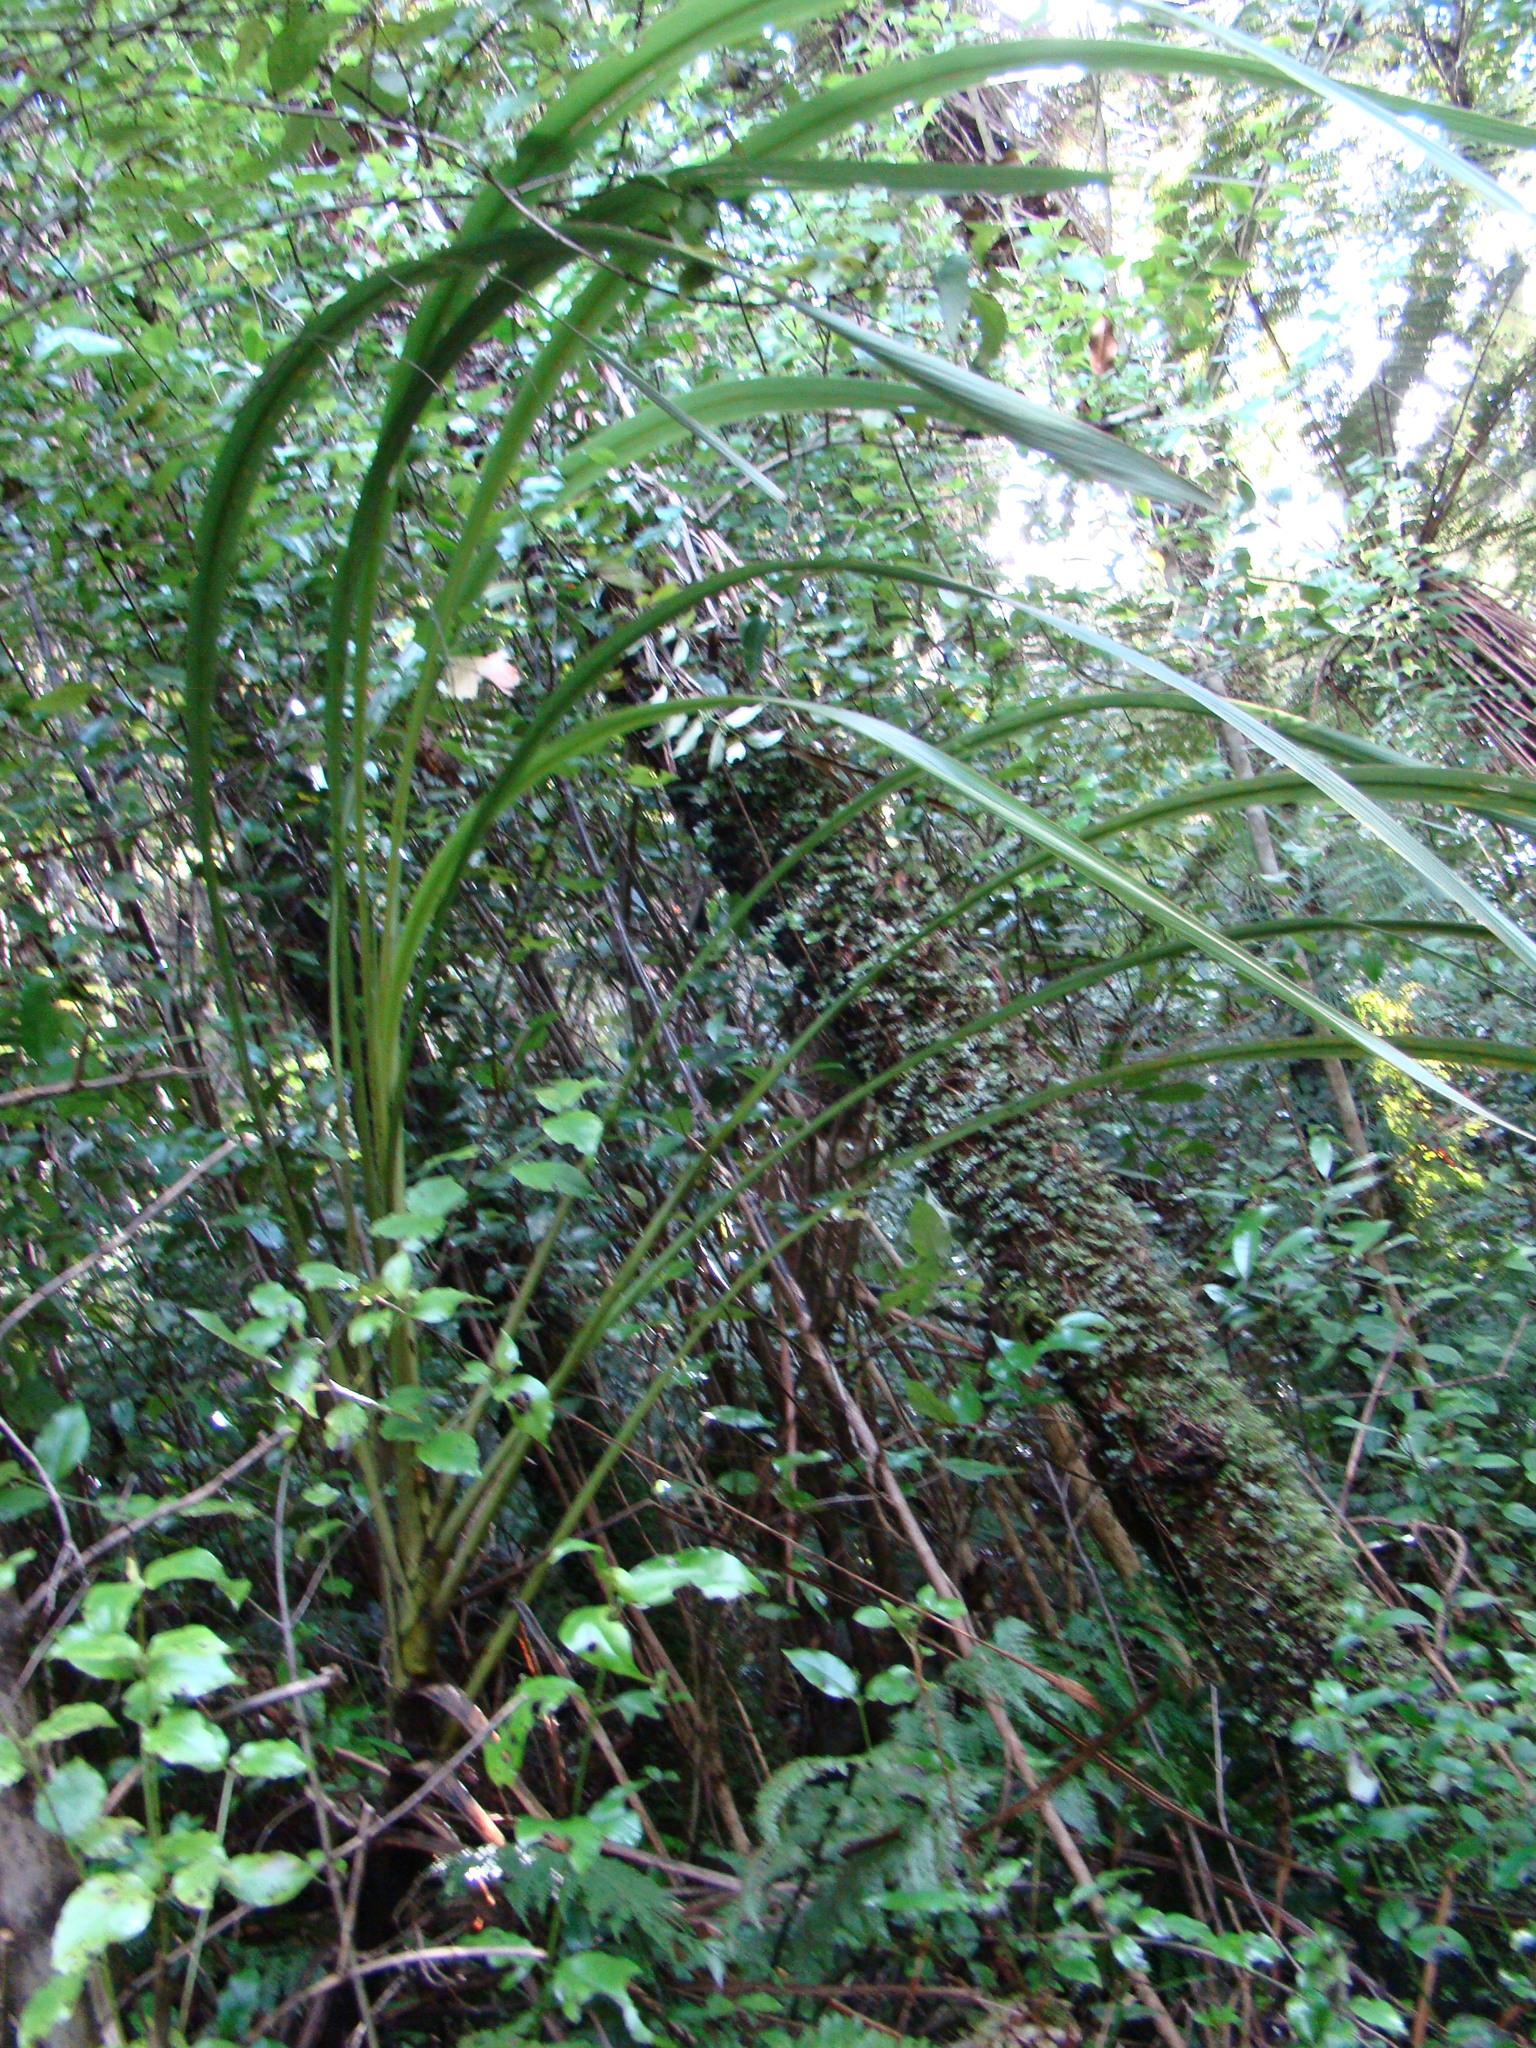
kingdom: Plantae
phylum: Tracheophyta
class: Liliopsida
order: Asparagales
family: Asparagaceae
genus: Cordyline
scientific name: Cordyline banksii
